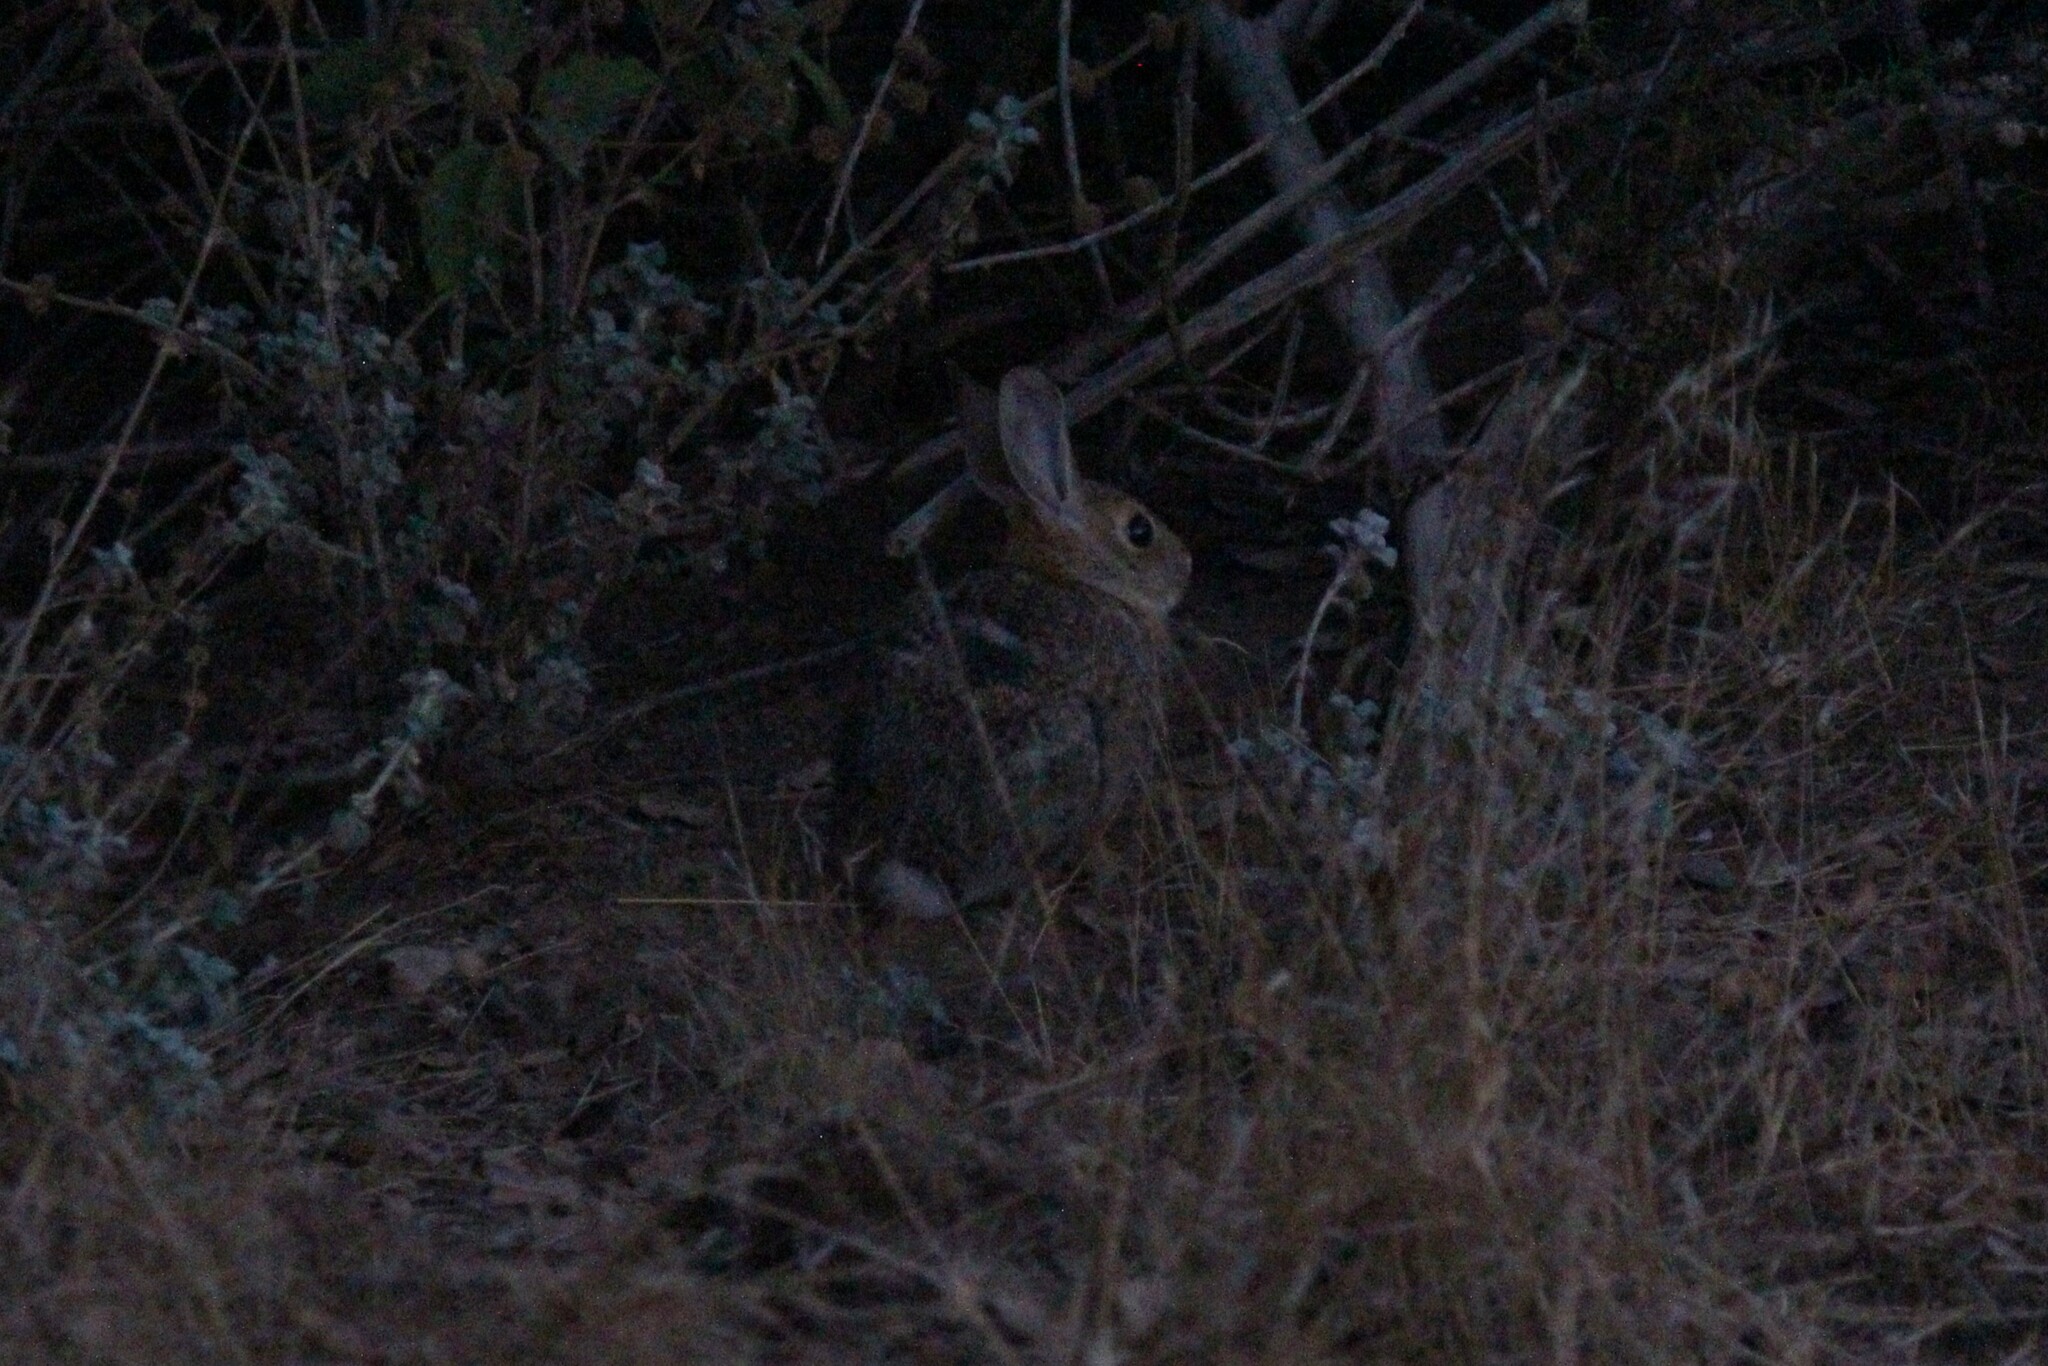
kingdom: Animalia
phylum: Chordata
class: Mammalia
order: Lagomorpha
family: Leporidae
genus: Sylvilagus
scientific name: Sylvilagus audubonii
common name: Desert cottontail
